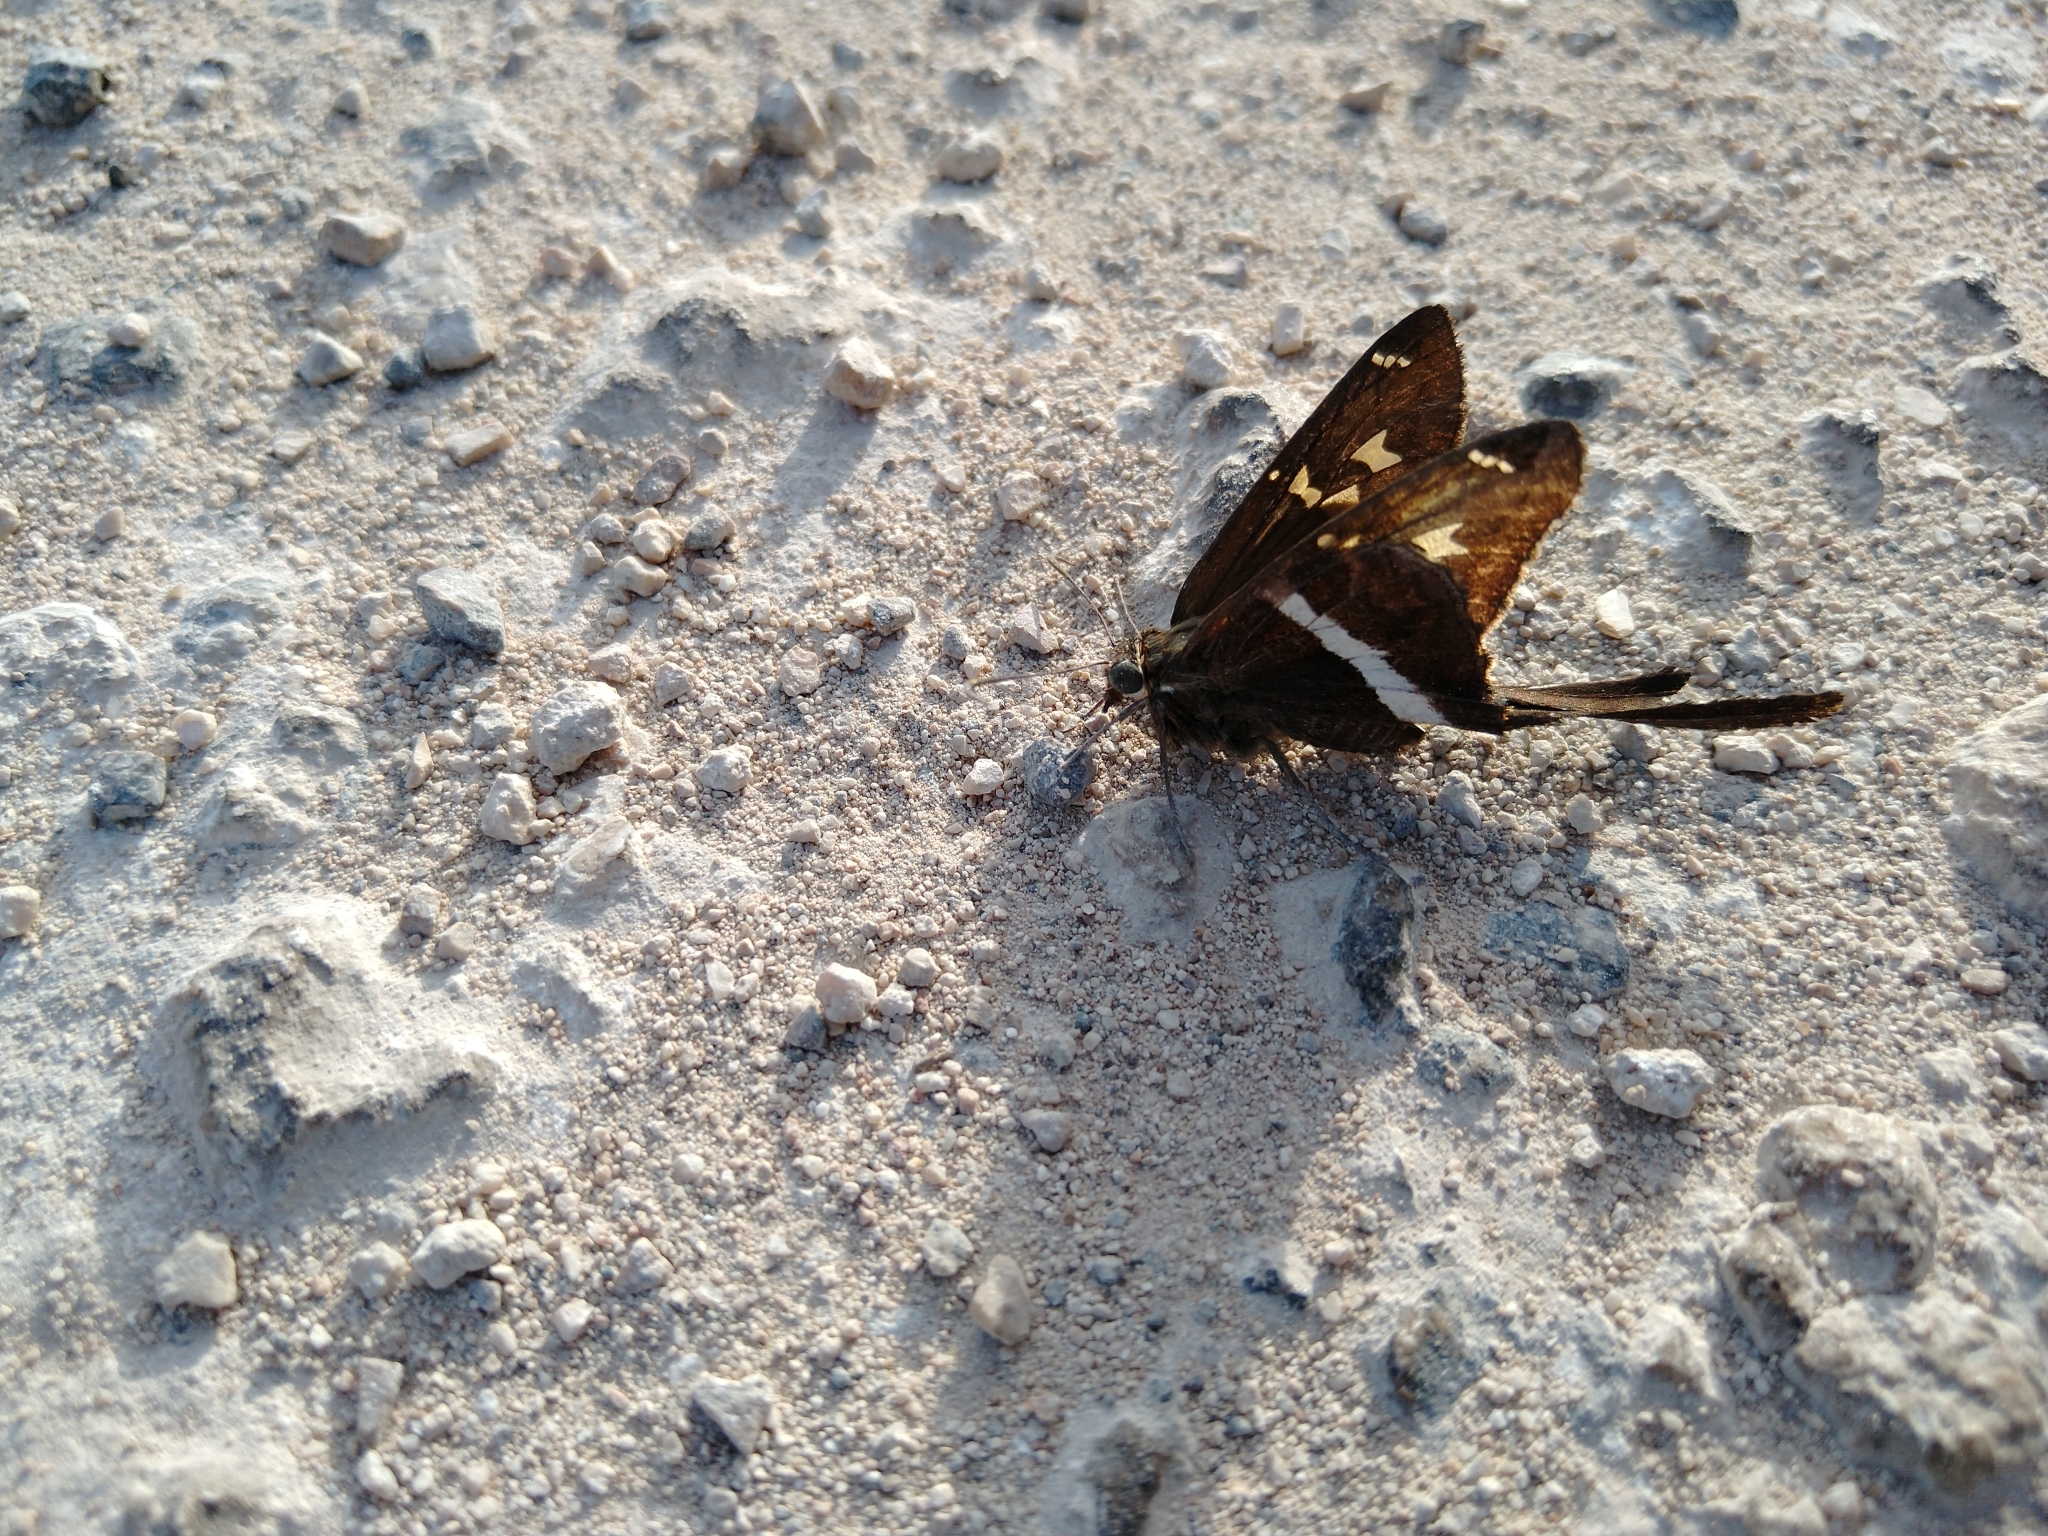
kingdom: Animalia
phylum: Arthropoda
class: Insecta
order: Lepidoptera
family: Hesperiidae
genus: Chioides
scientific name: Chioides catillus
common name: Silverbanded skipper
